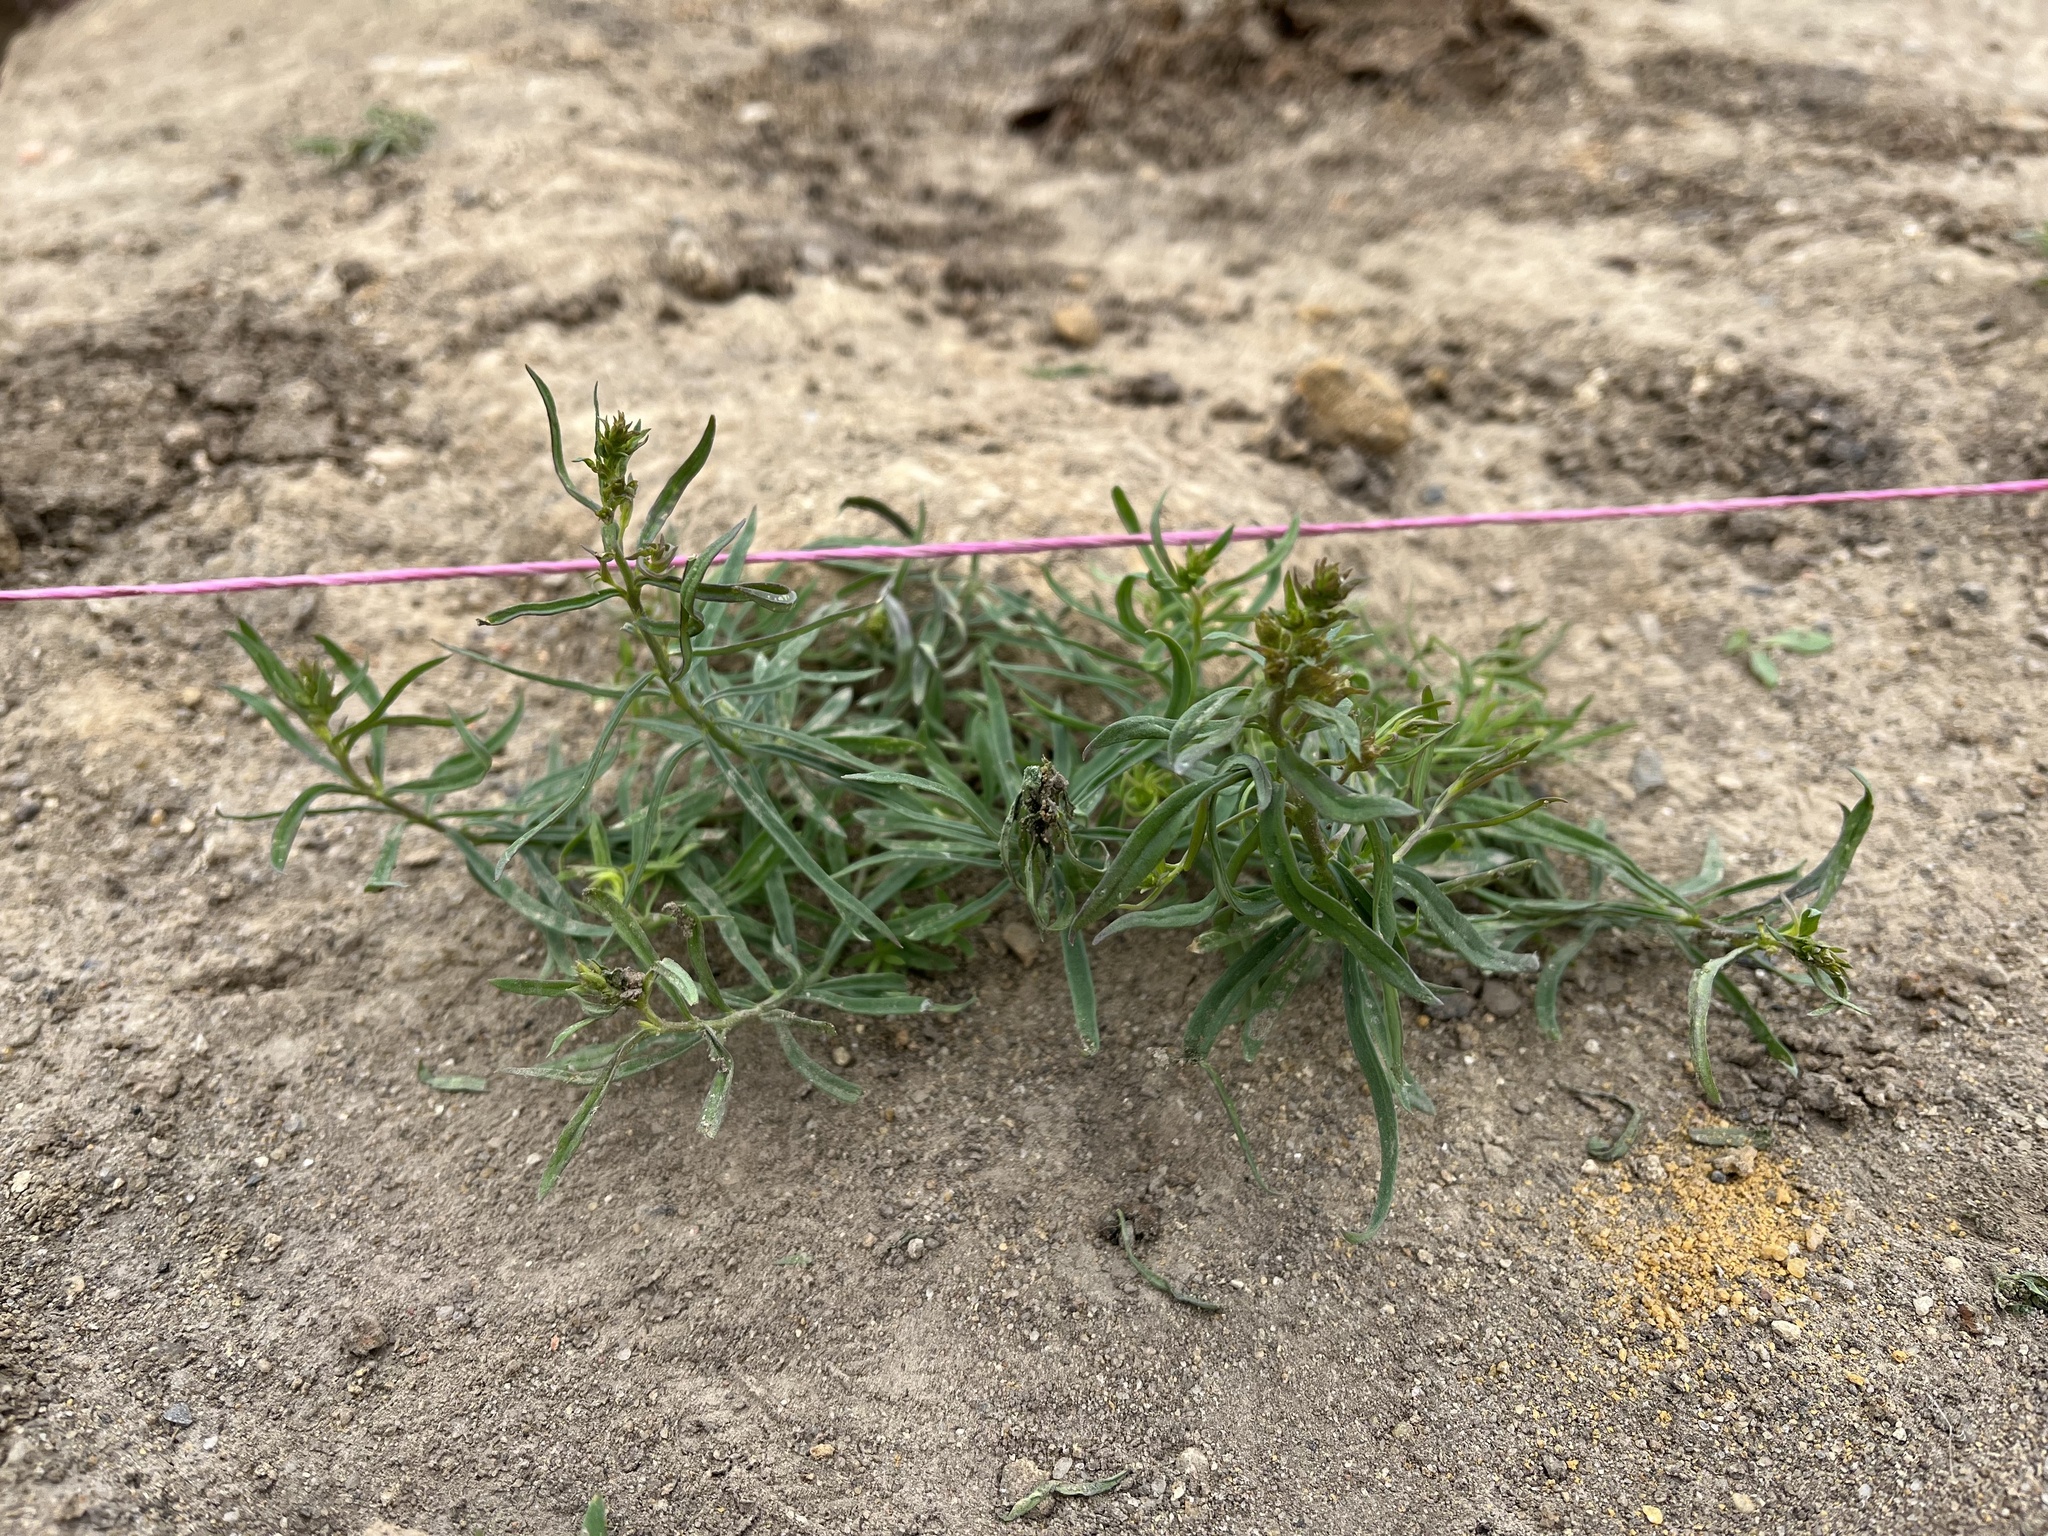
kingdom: Plantae
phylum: Tracheophyta
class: Magnoliopsida
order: Lamiales
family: Plantaginaceae
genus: Linaria
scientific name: Linaria vulgaris
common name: Butter and eggs
